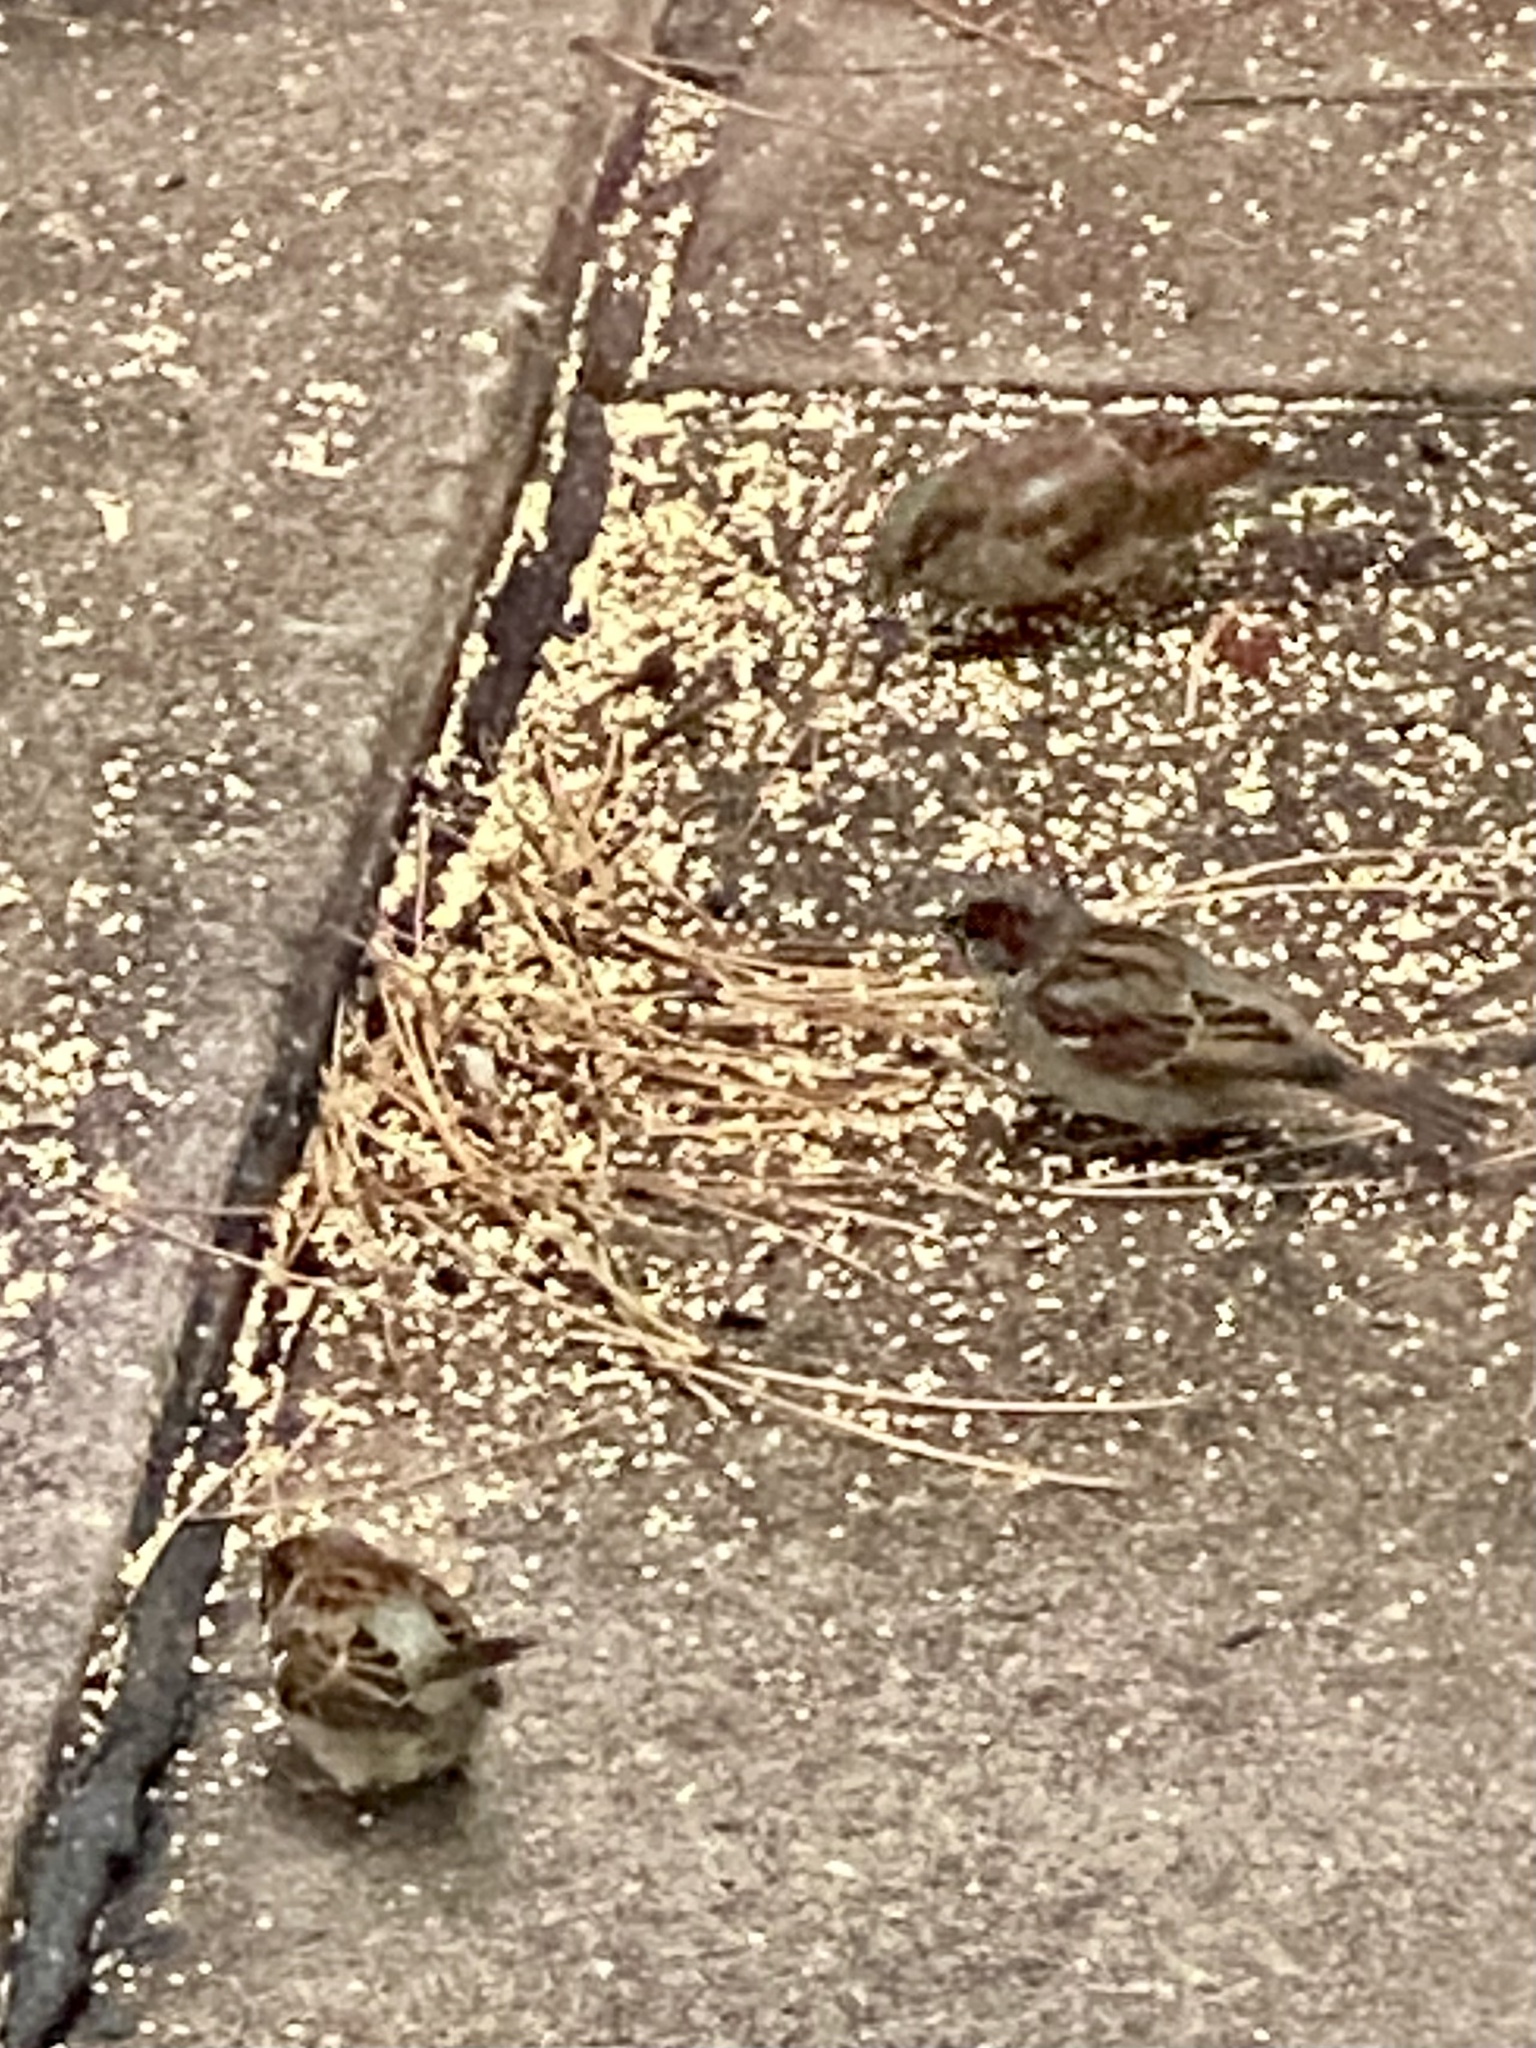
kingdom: Animalia
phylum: Chordata
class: Aves
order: Passeriformes
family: Passeridae
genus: Passer
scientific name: Passer domesticus
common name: House sparrow
